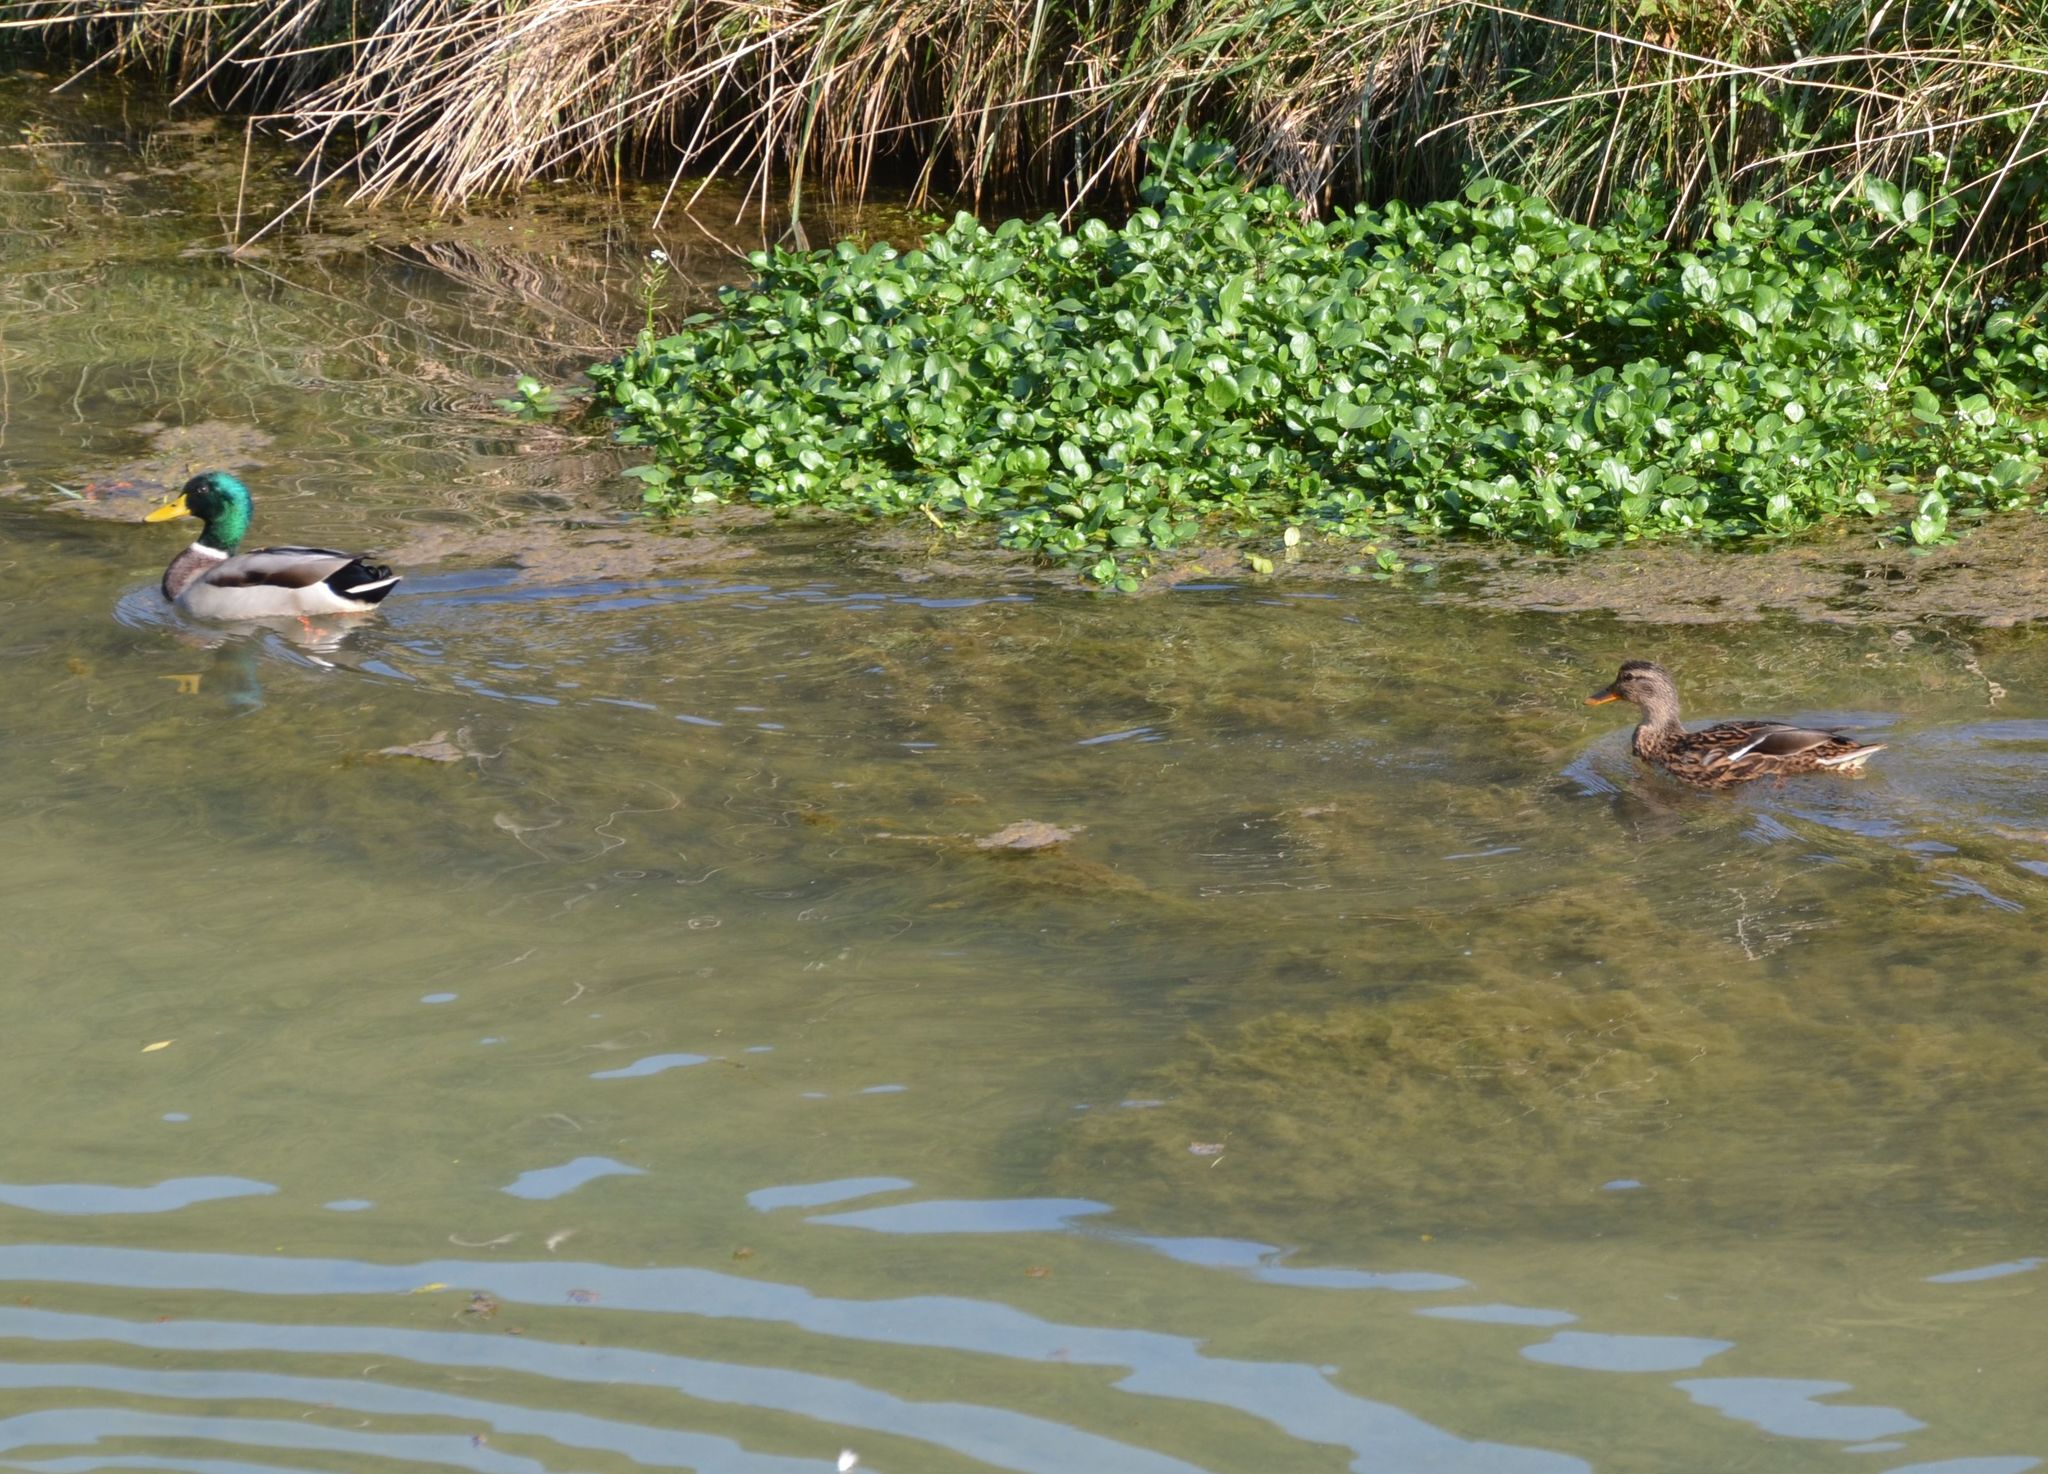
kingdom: Animalia
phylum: Chordata
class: Aves
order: Anseriformes
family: Anatidae
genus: Anas
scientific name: Anas platyrhynchos
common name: Mallard
